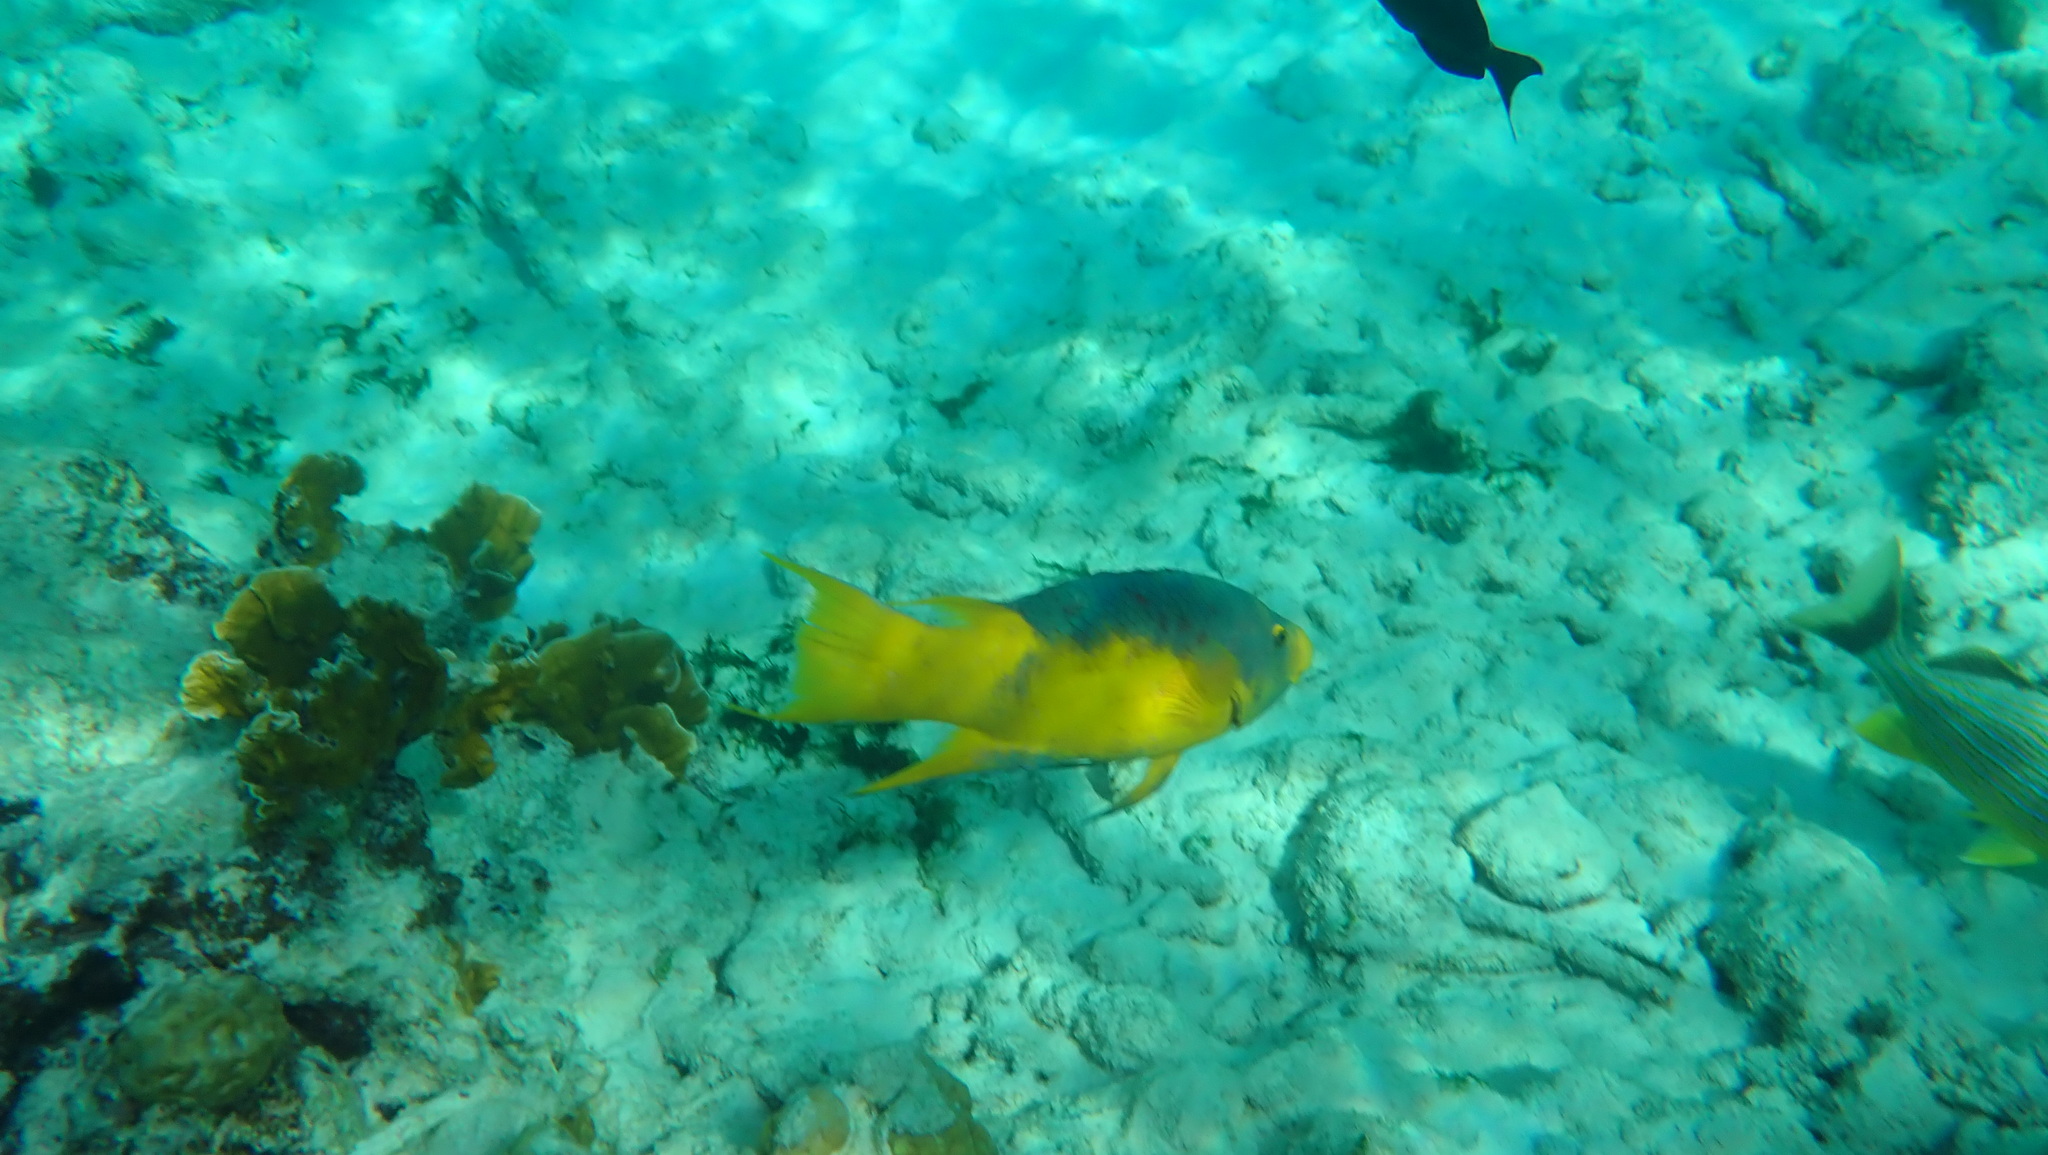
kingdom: Animalia
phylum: Chordata
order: Perciformes
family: Labridae
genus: Bodianus
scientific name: Bodianus rufus
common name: Spanish hogfish
